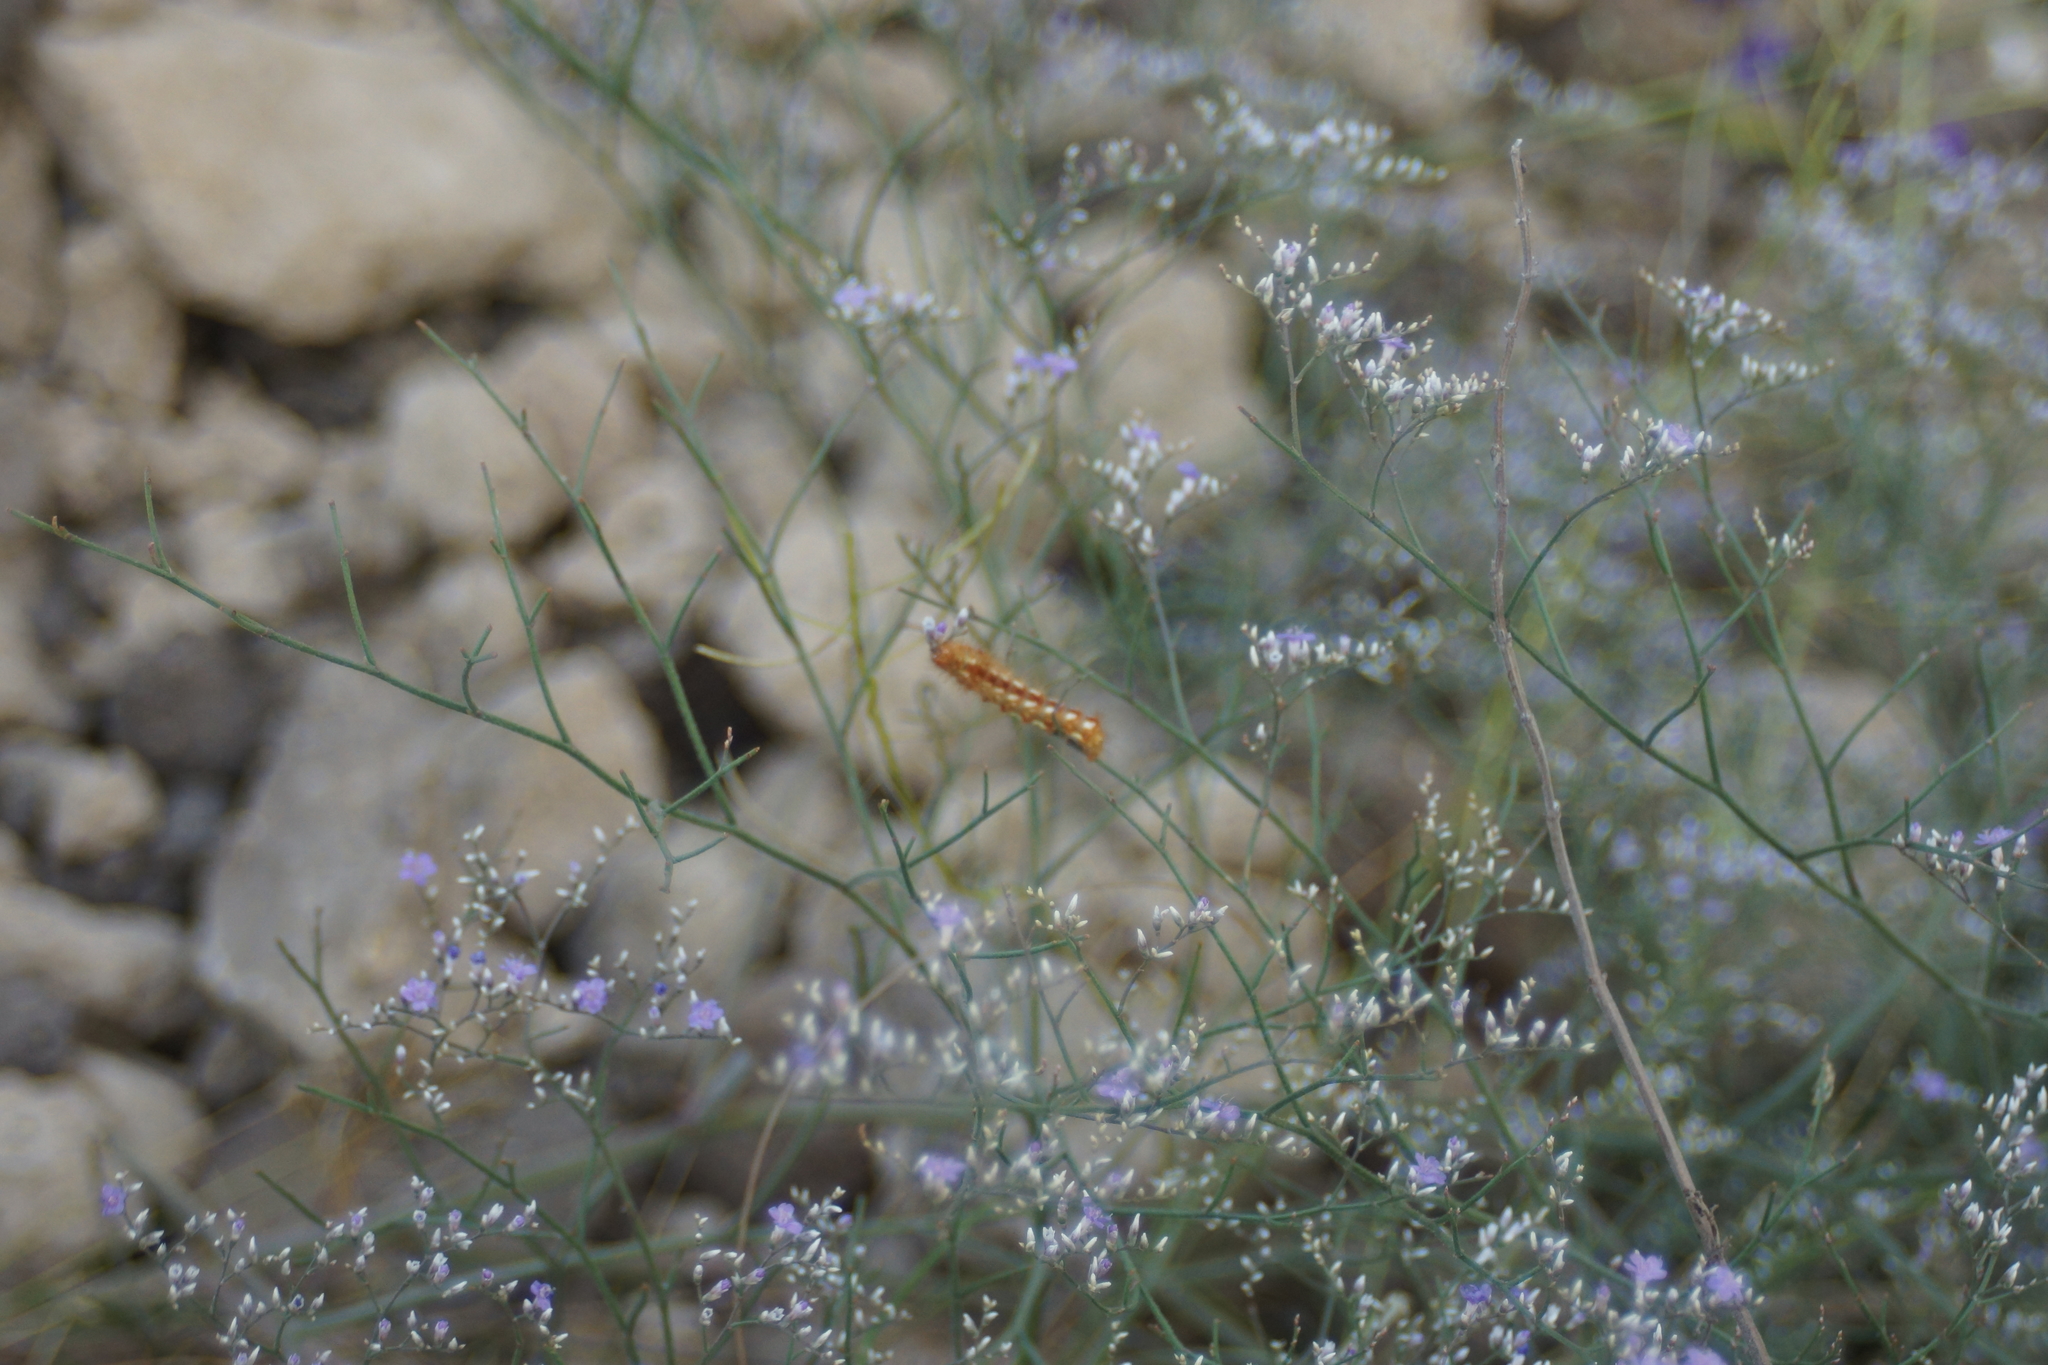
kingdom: Animalia
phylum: Arthropoda
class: Insecta
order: Lepidoptera
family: Noctuidae
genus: Acronicta
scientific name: Acronicta rumicis
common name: Knot grass
